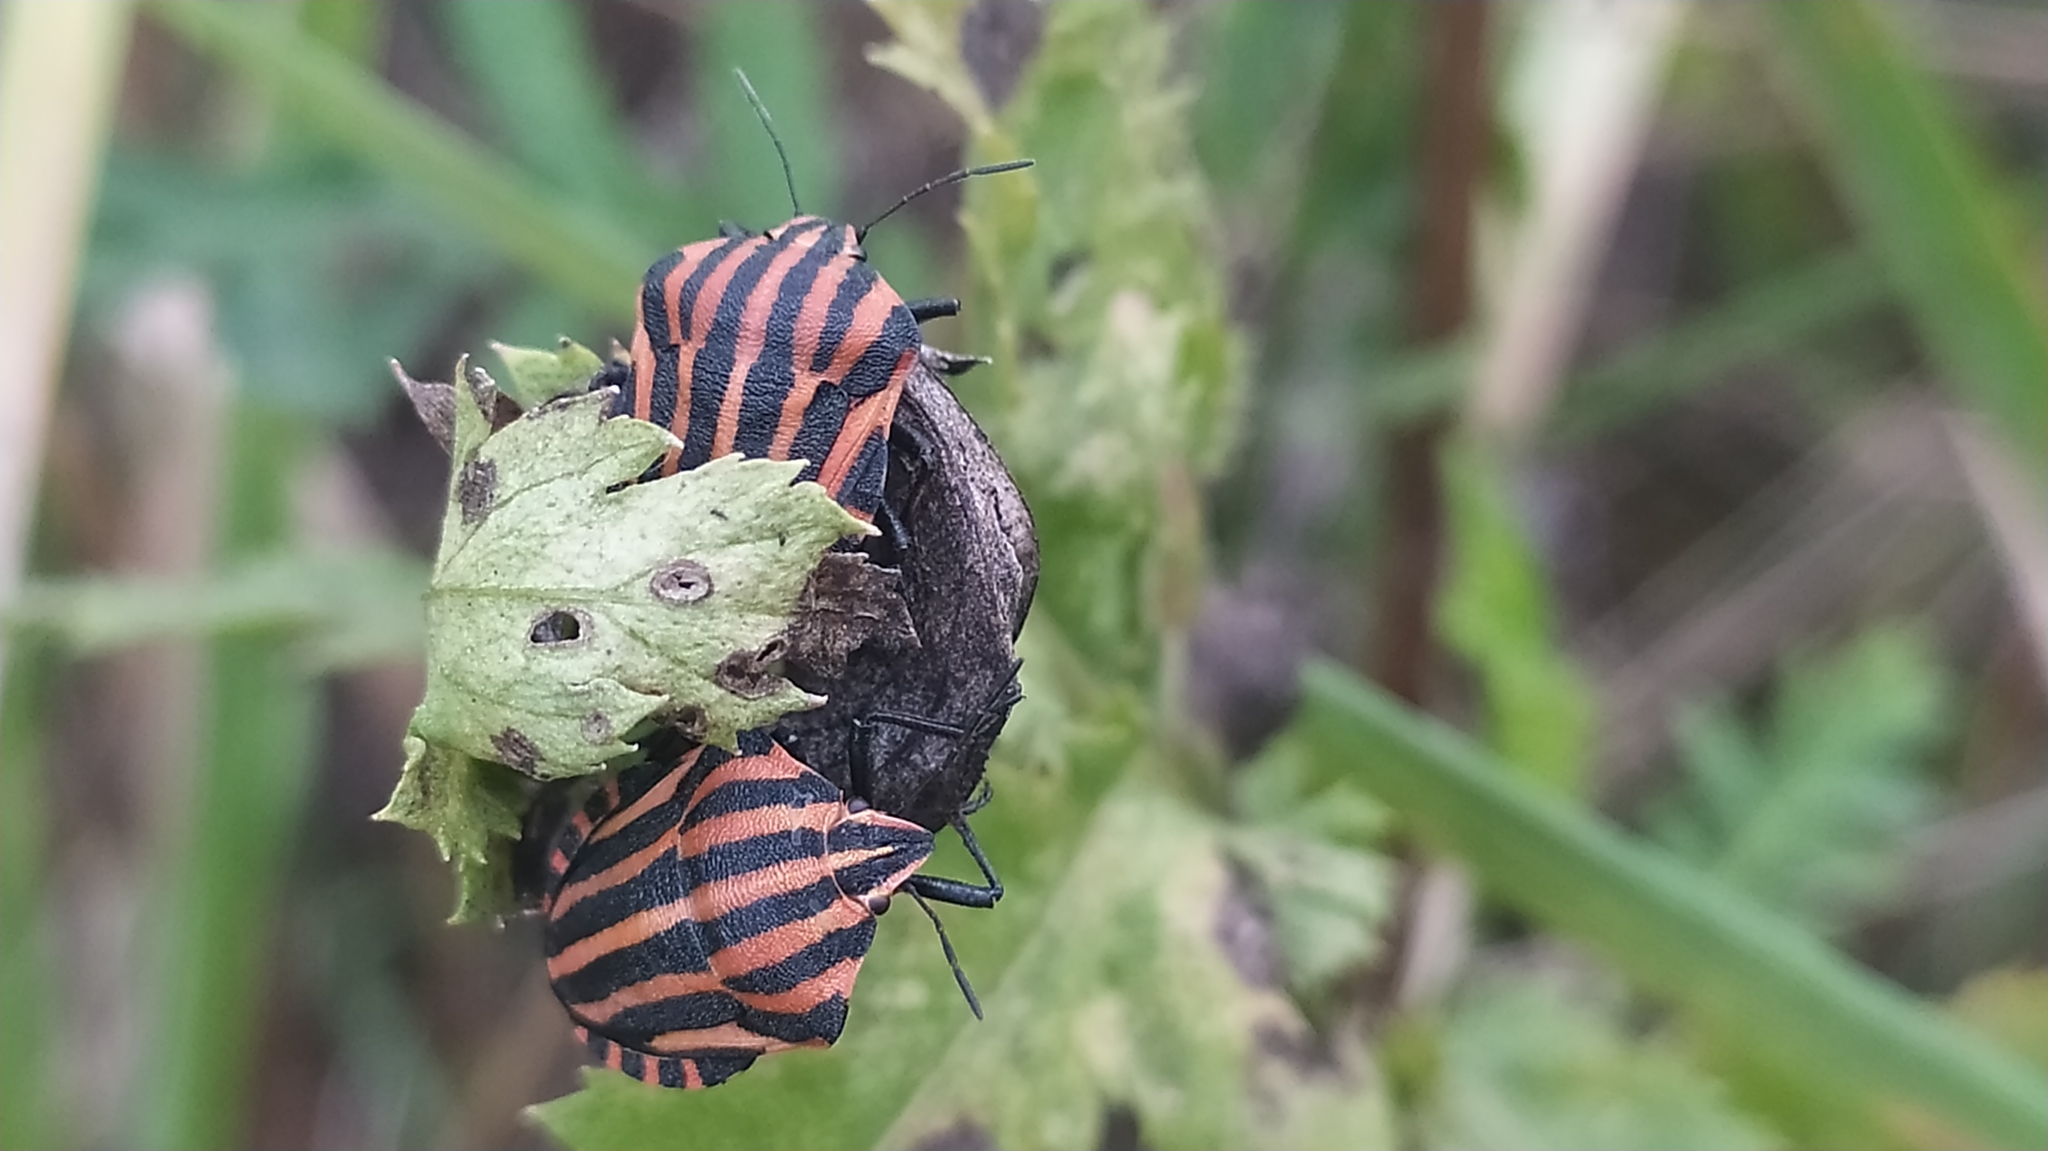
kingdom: Animalia
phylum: Arthropoda
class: Insecta
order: Hemiptera
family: Pentatomidae
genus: Graphosoma
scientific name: Graphosoma italicum
